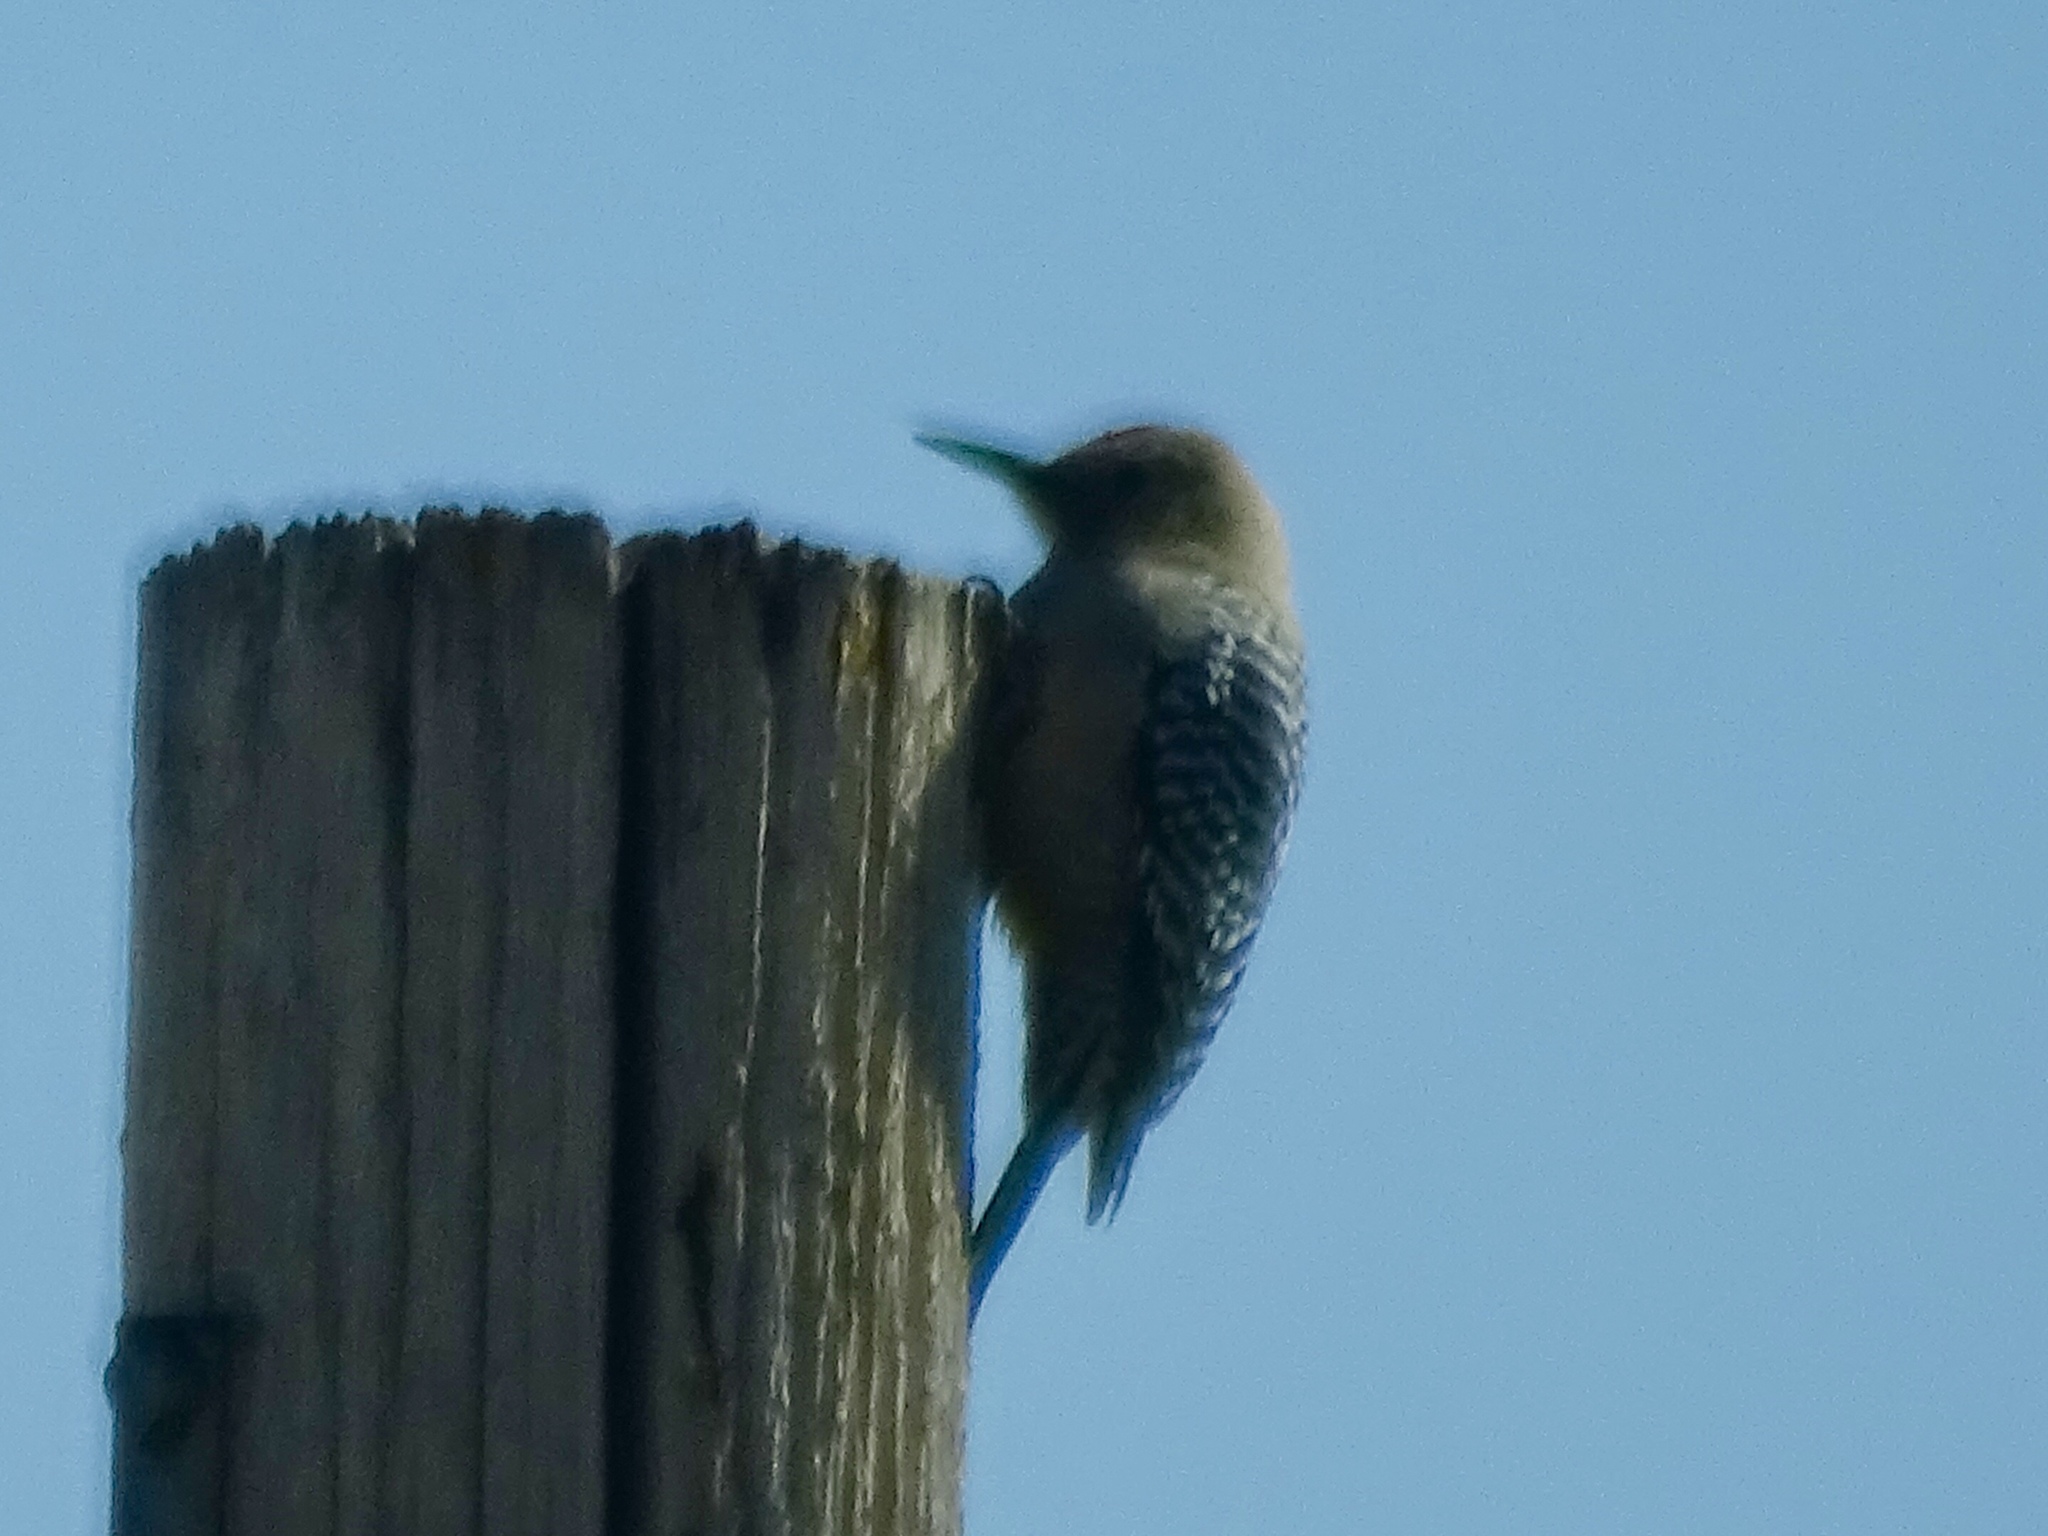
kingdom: Animalia
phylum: Chordata
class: Aves
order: Piciformes
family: Picidae
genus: Melanerpes
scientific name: Melanerpes uropygialis
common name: Gila woodpecker
